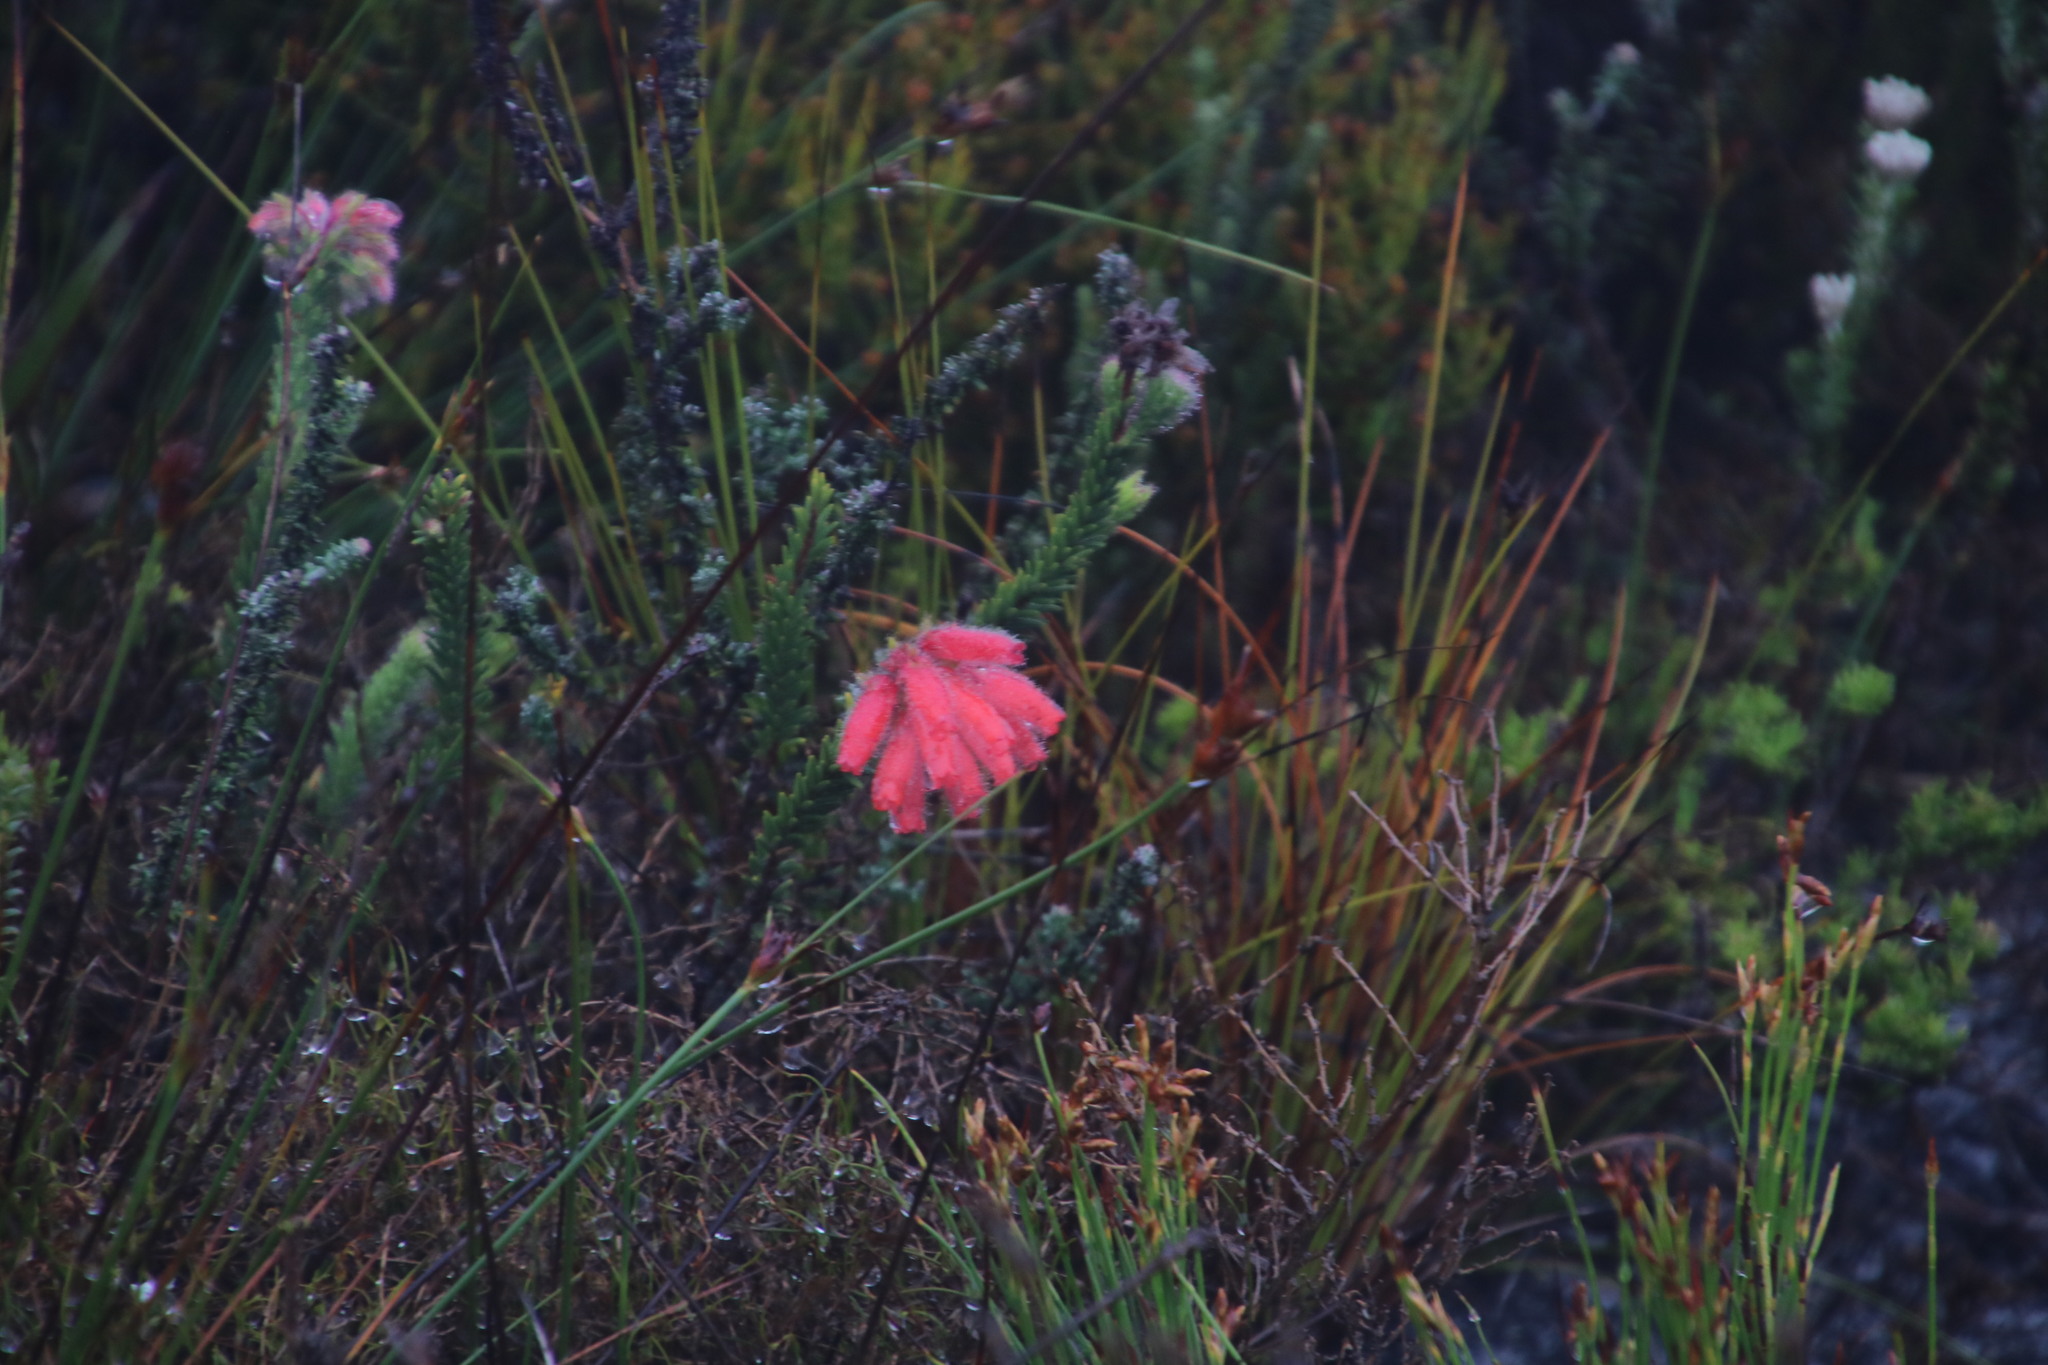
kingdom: Plantae
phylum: Tracheophyta
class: Magnoliopsida
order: Ericales
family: Ericaceae
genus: Erica
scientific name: Erica cerinthoides
